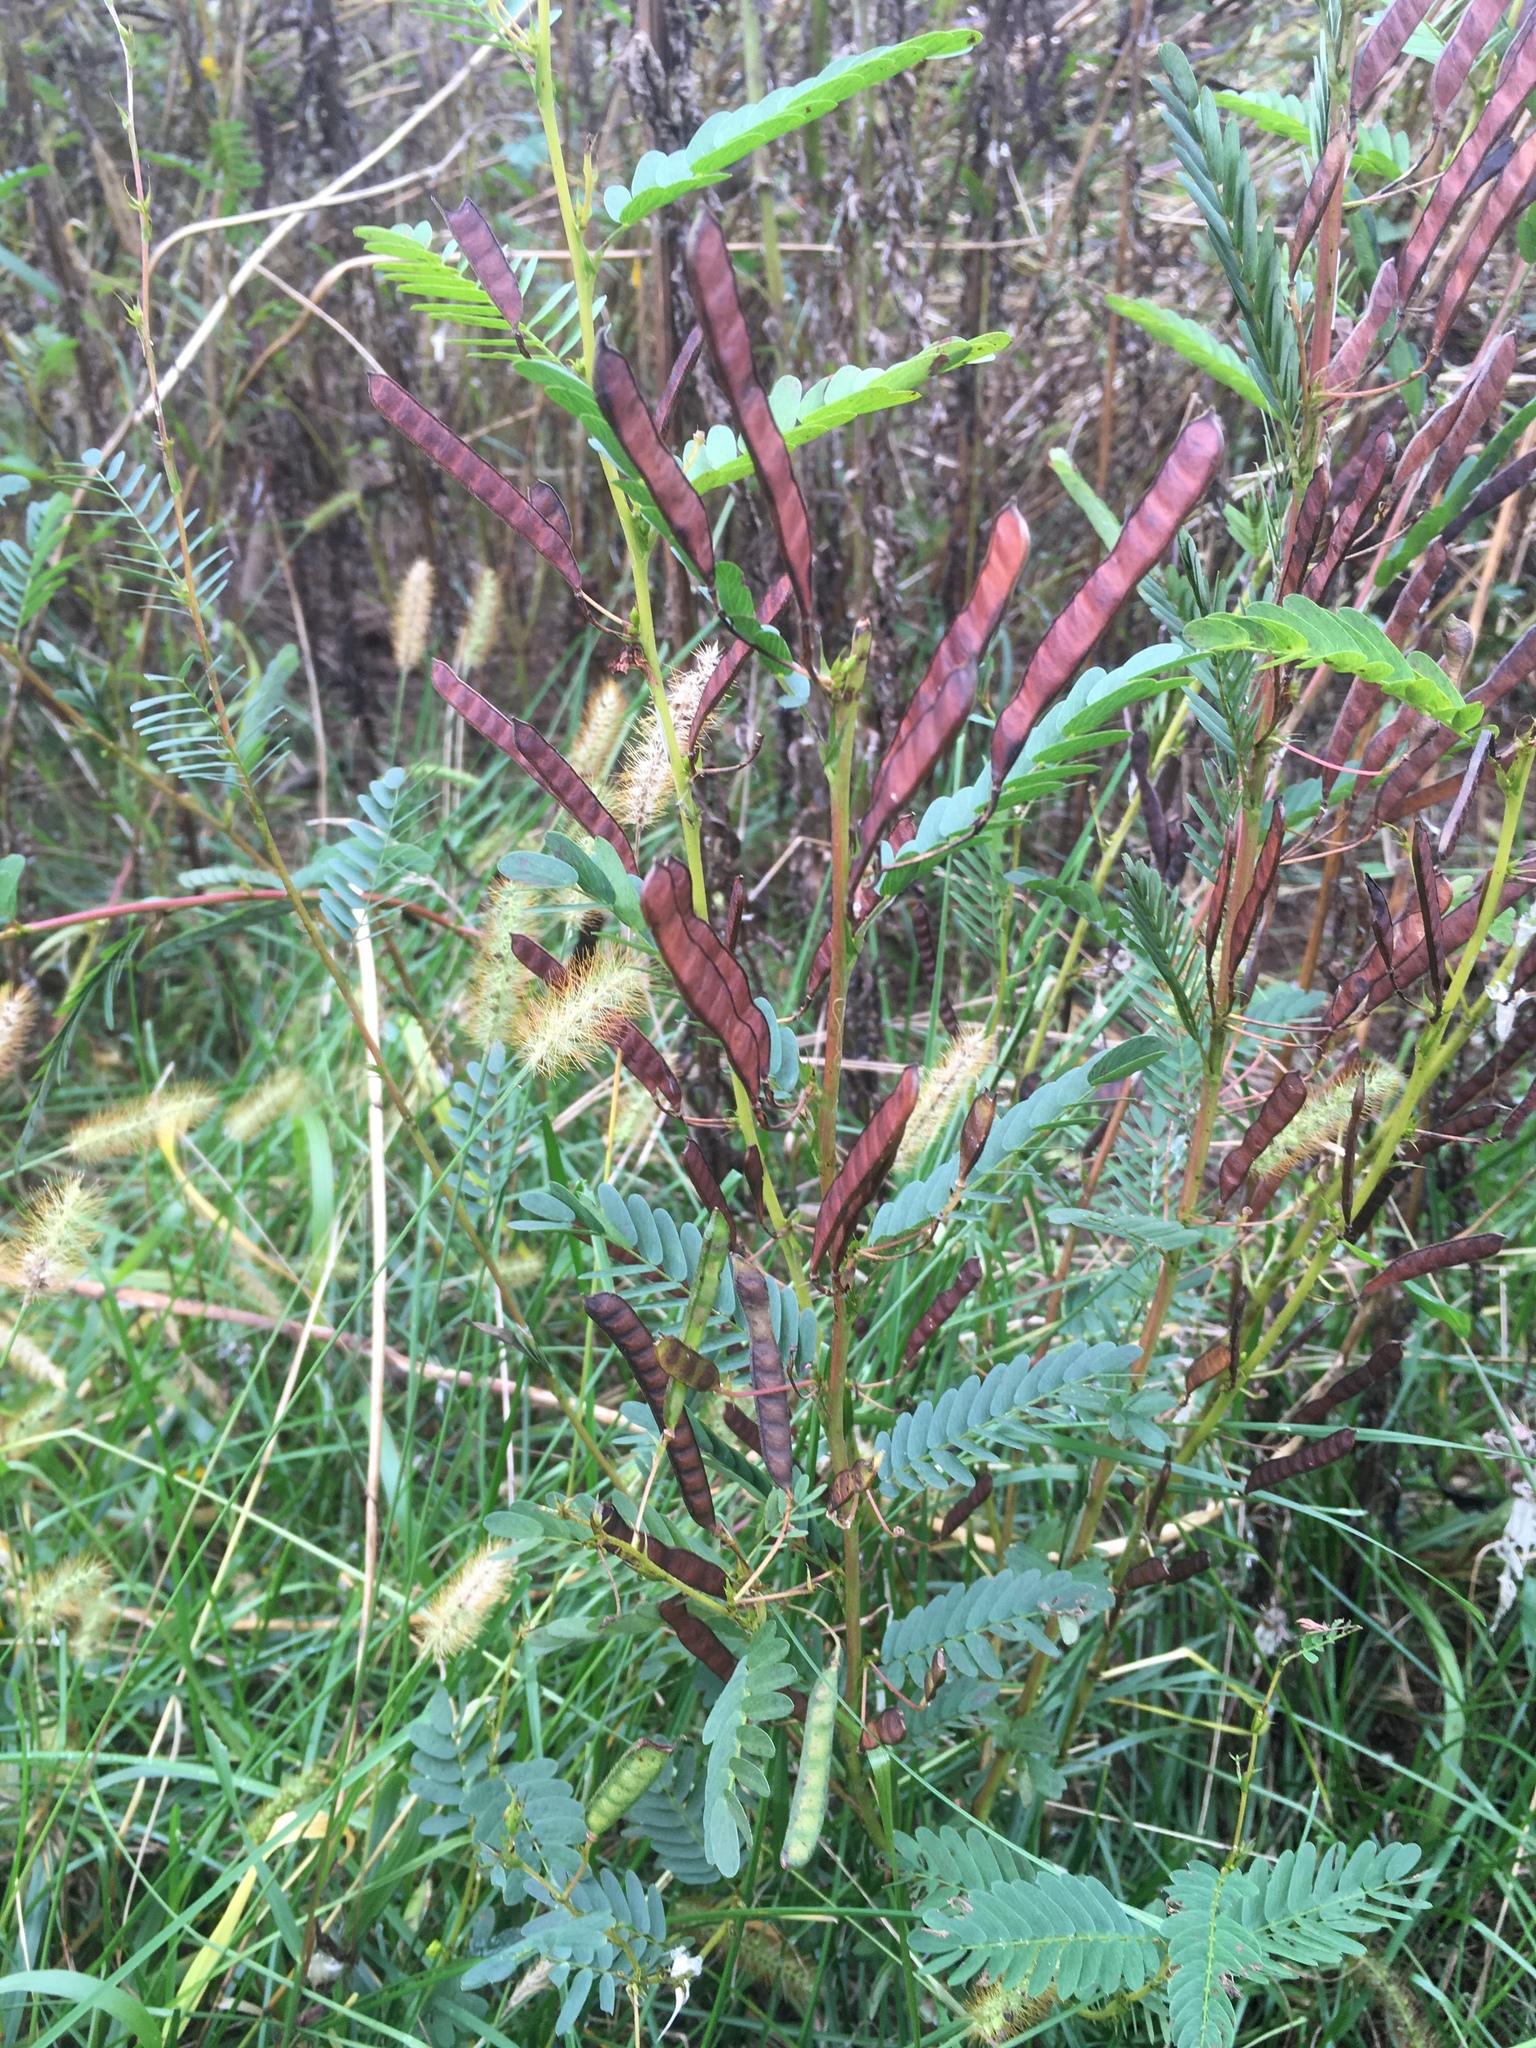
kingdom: Plantae
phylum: Tracheophyta
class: Magnoliopsida
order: Fabales
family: Fabaceae
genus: Chamaecrista
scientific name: Chamaecrista fasciculata
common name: Golden cassia
